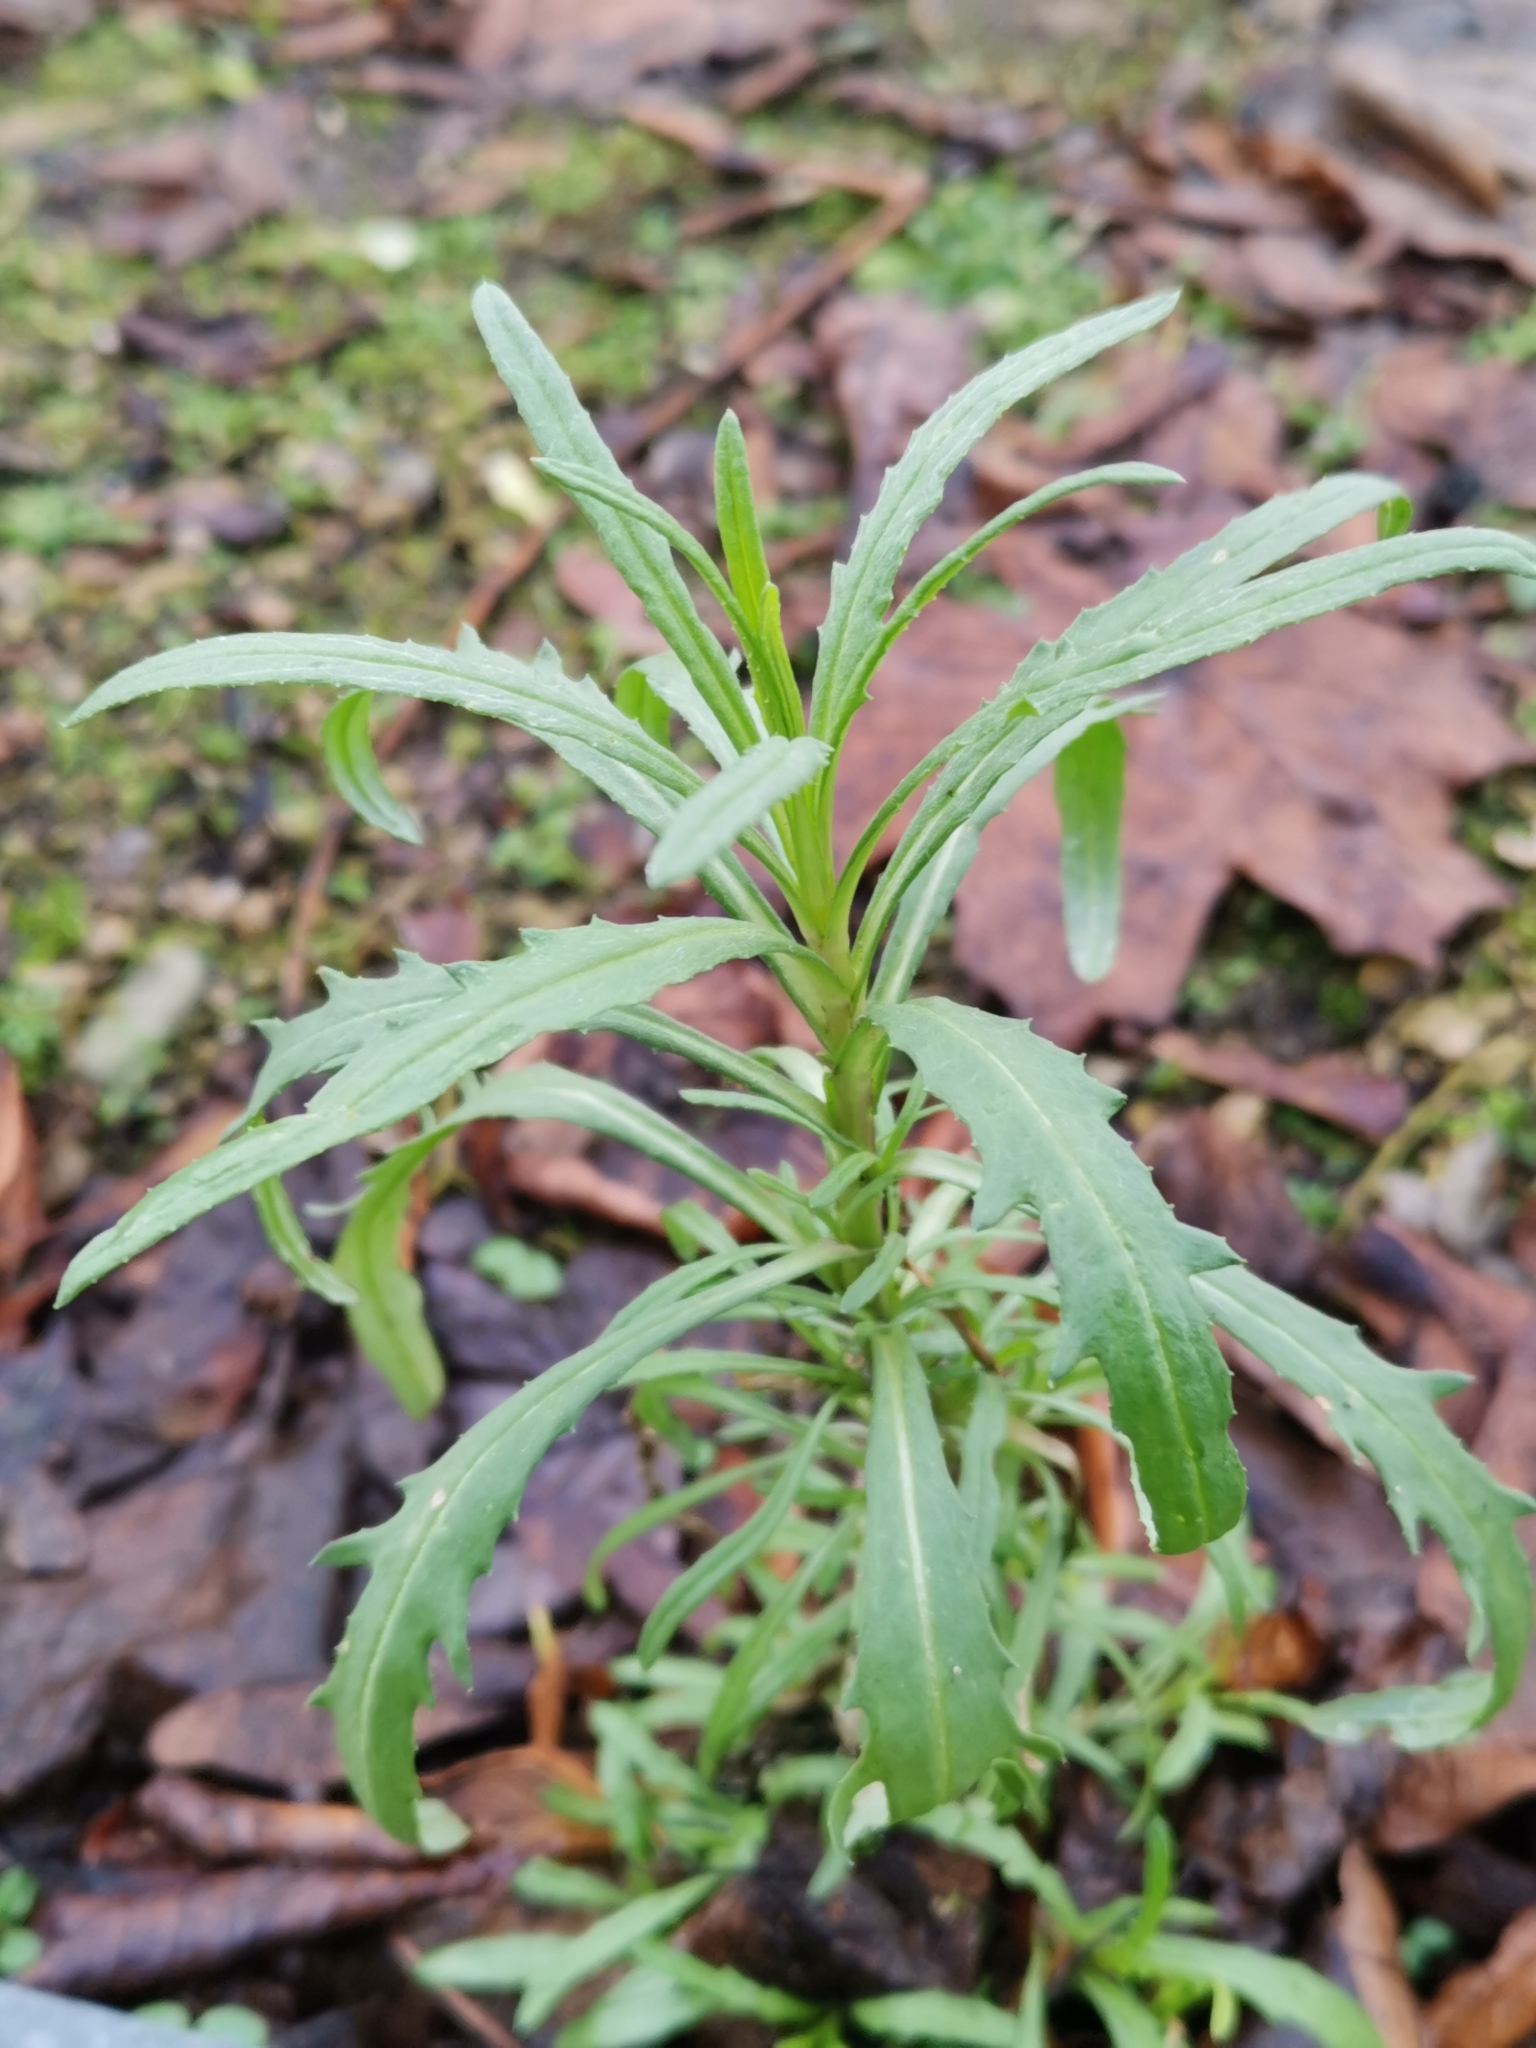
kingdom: Plantae
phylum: Tracheophyta
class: Magnoliopsida
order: Asterales
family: Asteraceae
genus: Senecio
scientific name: Senecio inaequidens
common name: Narrow-leaved ragwort
